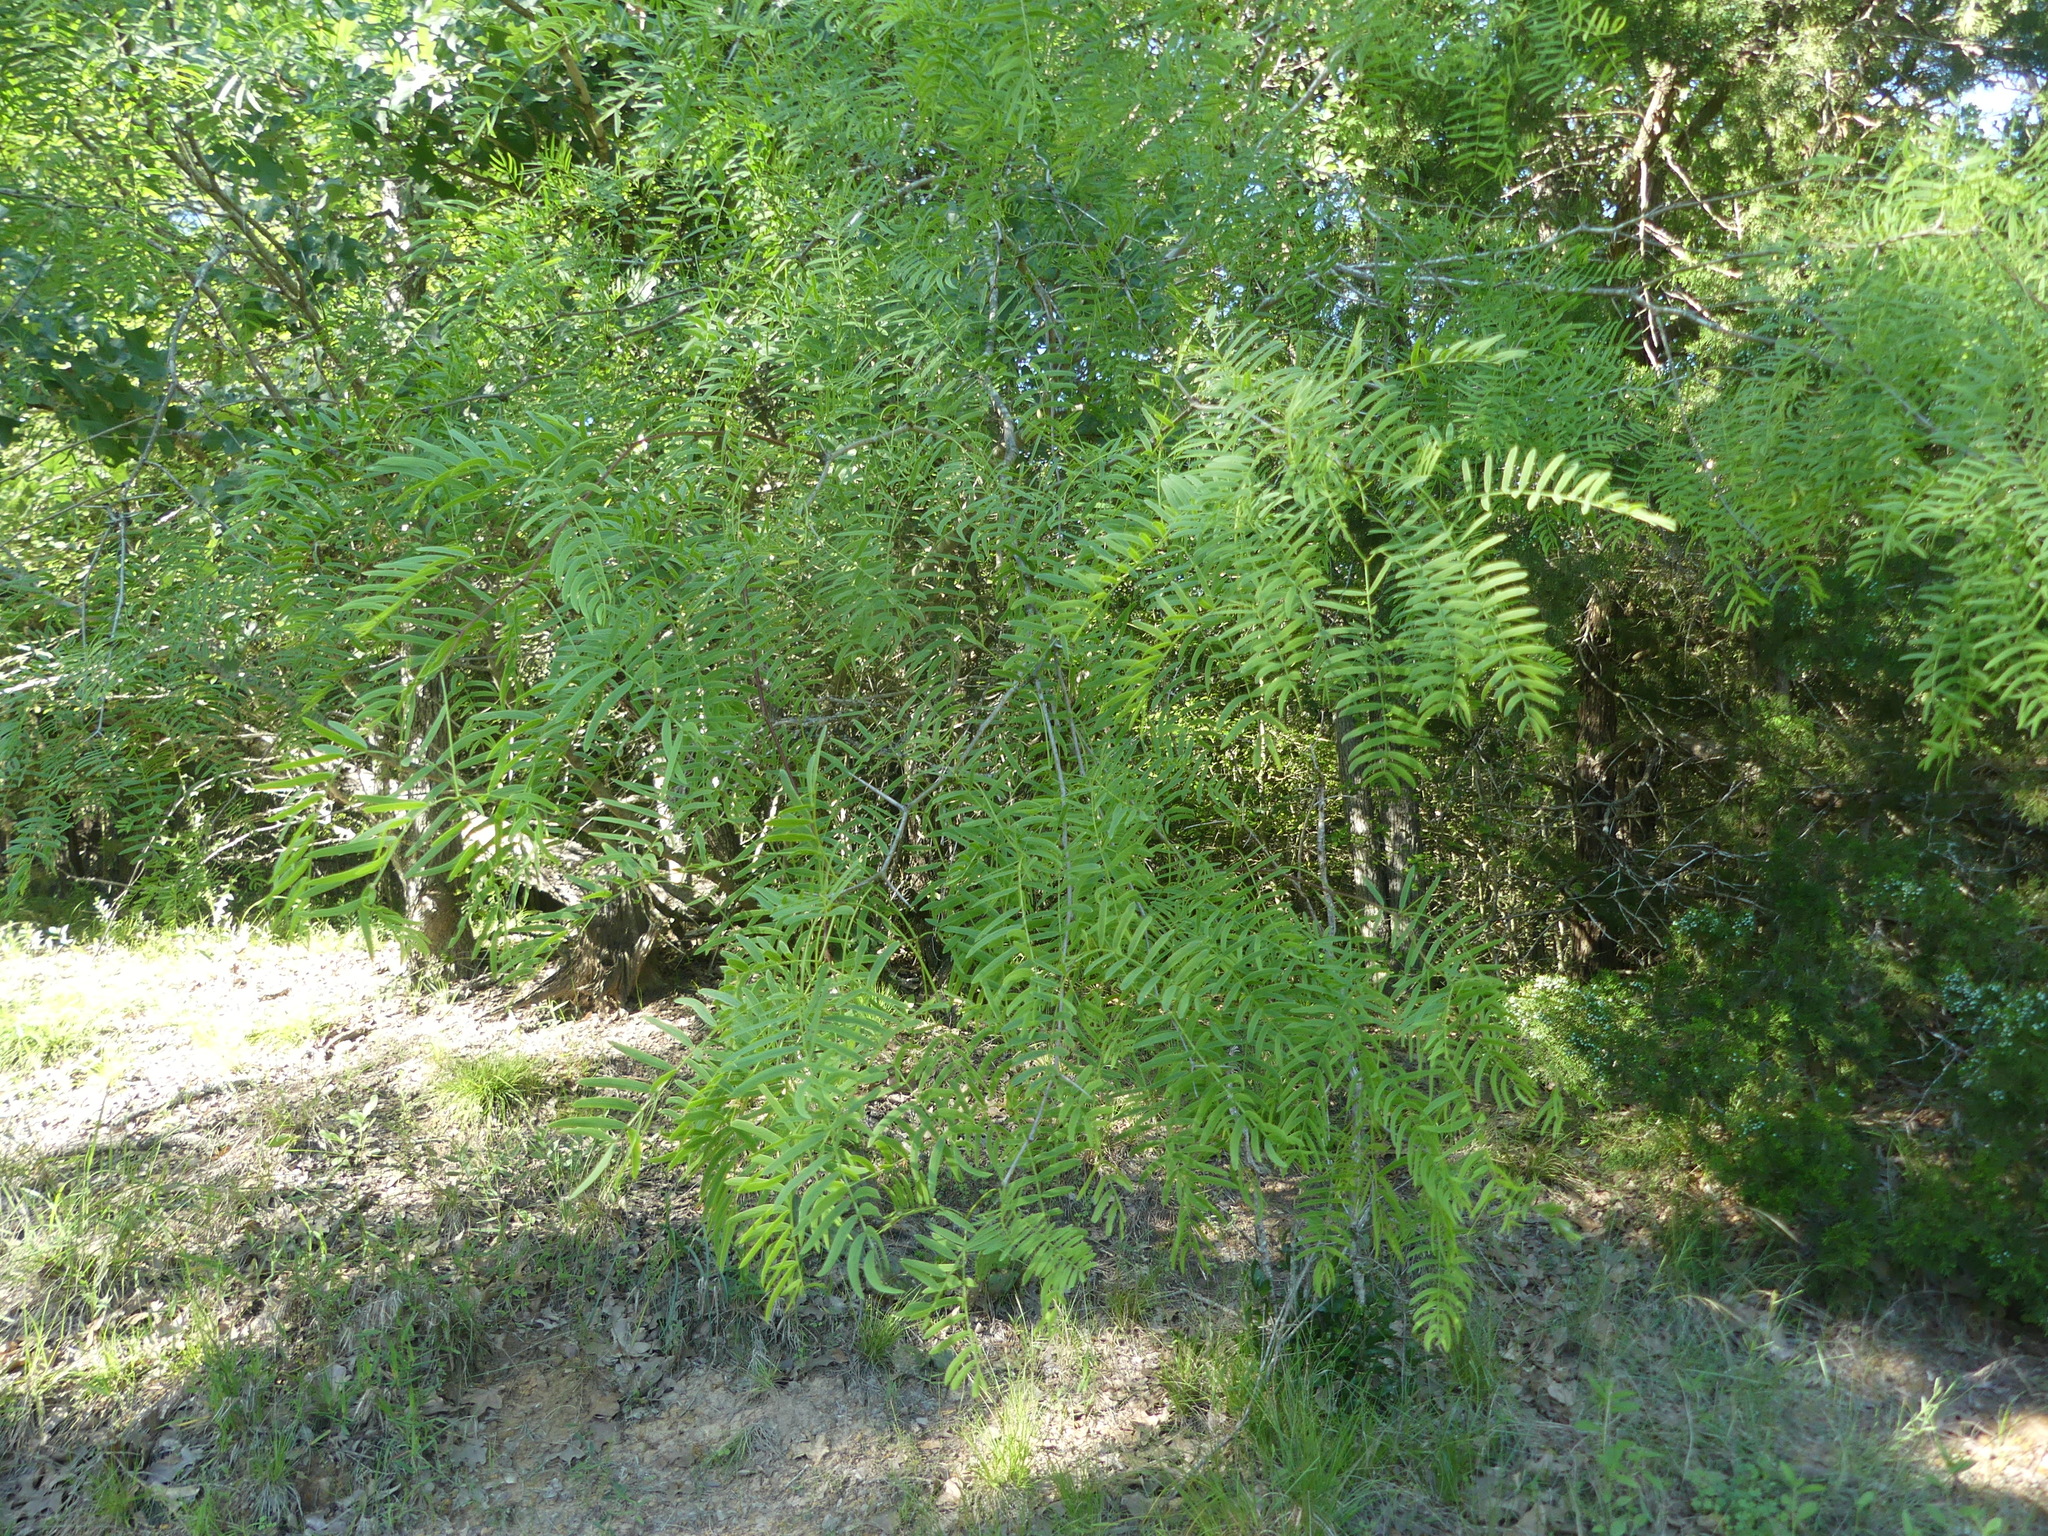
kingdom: Plantae
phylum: Tracheophyta
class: Magnoliopsida
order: Fabales
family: Fabaceae
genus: Prosopis
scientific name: Prosopis glandulosa
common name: Honey mesquite
